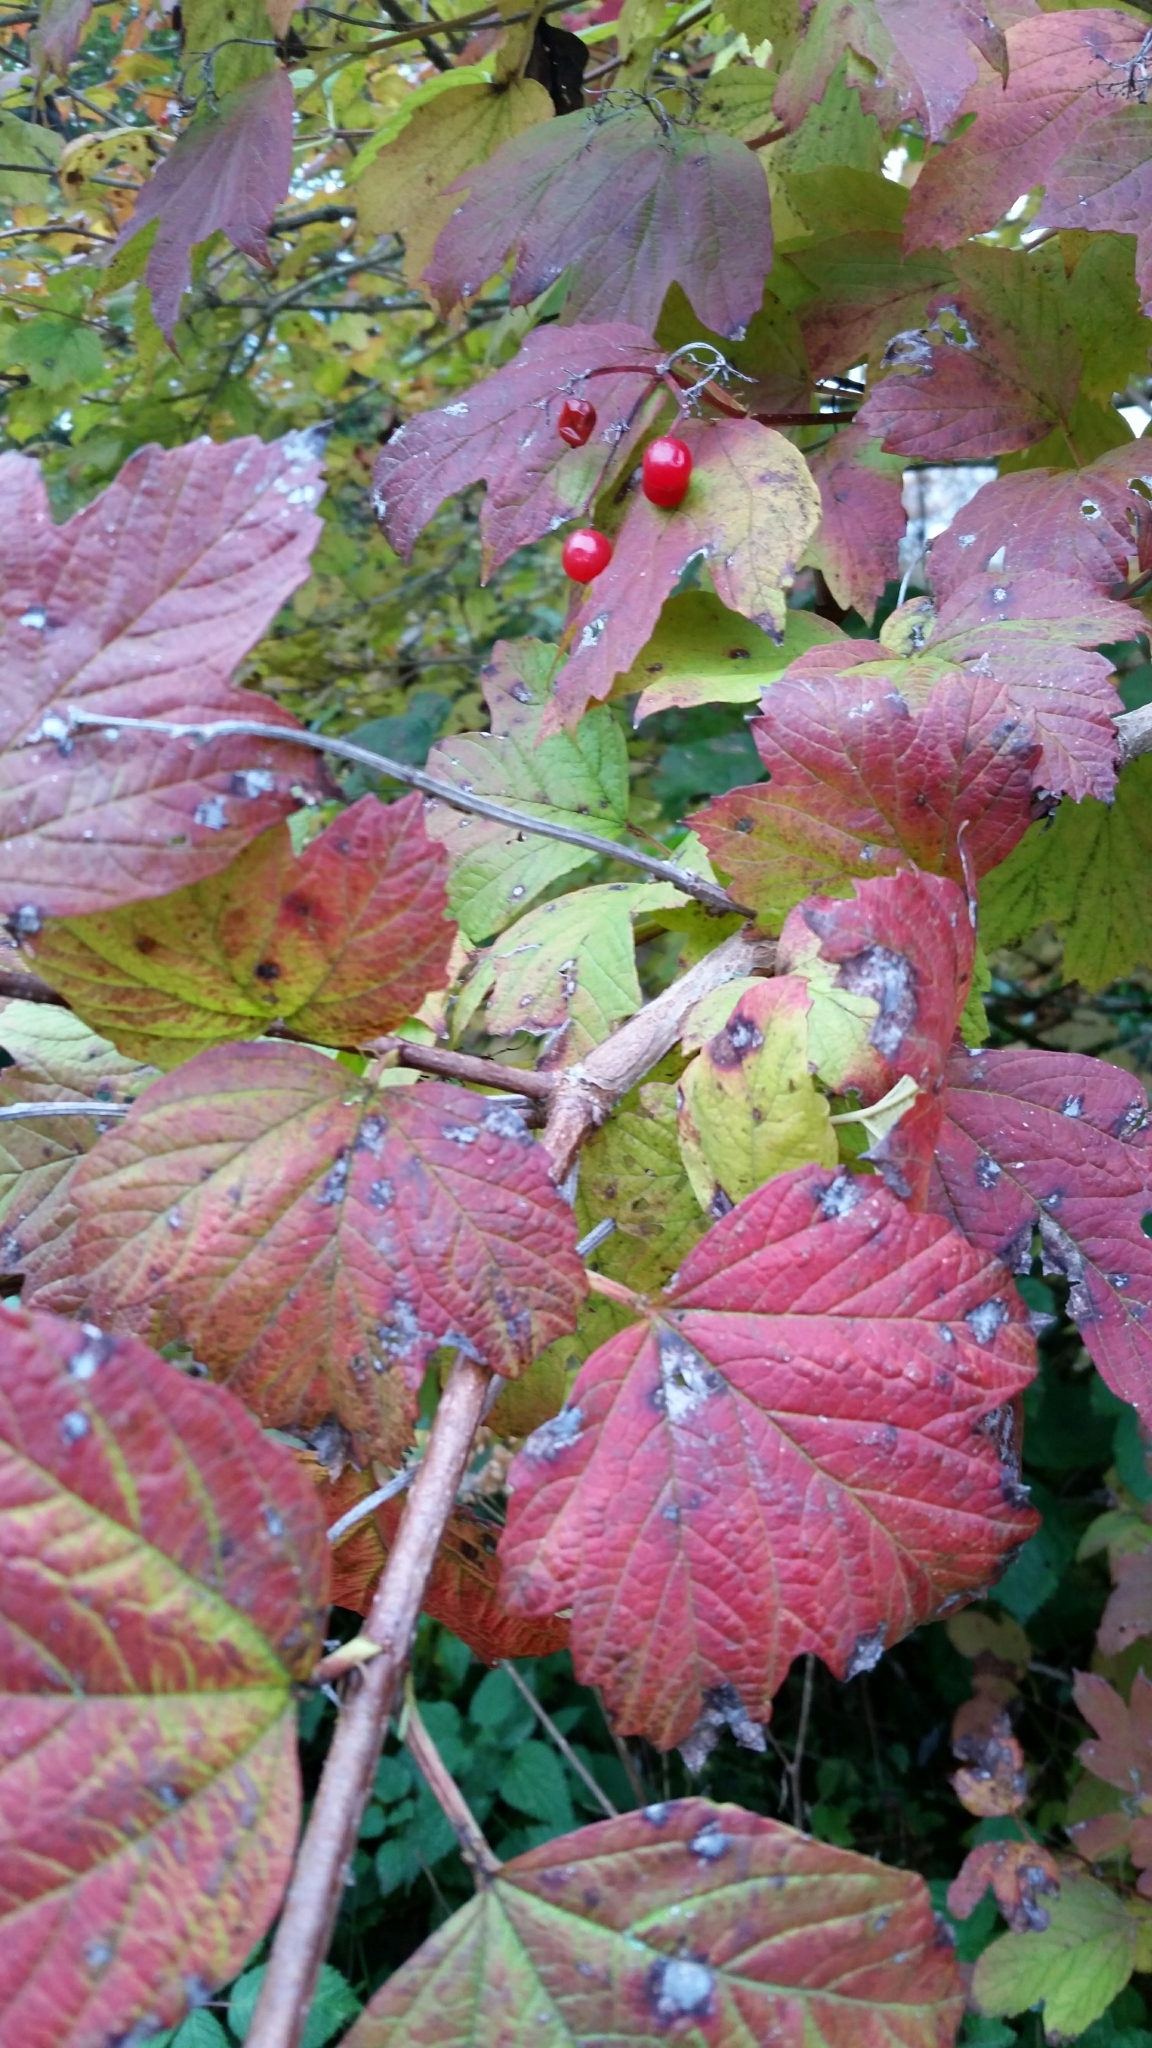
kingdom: Plantae
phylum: Tracheophyta
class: Magnoliopsida
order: Dipsacales
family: Viburnaceae
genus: Viburnum
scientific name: Viburnum opulus
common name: Guelder-rose
